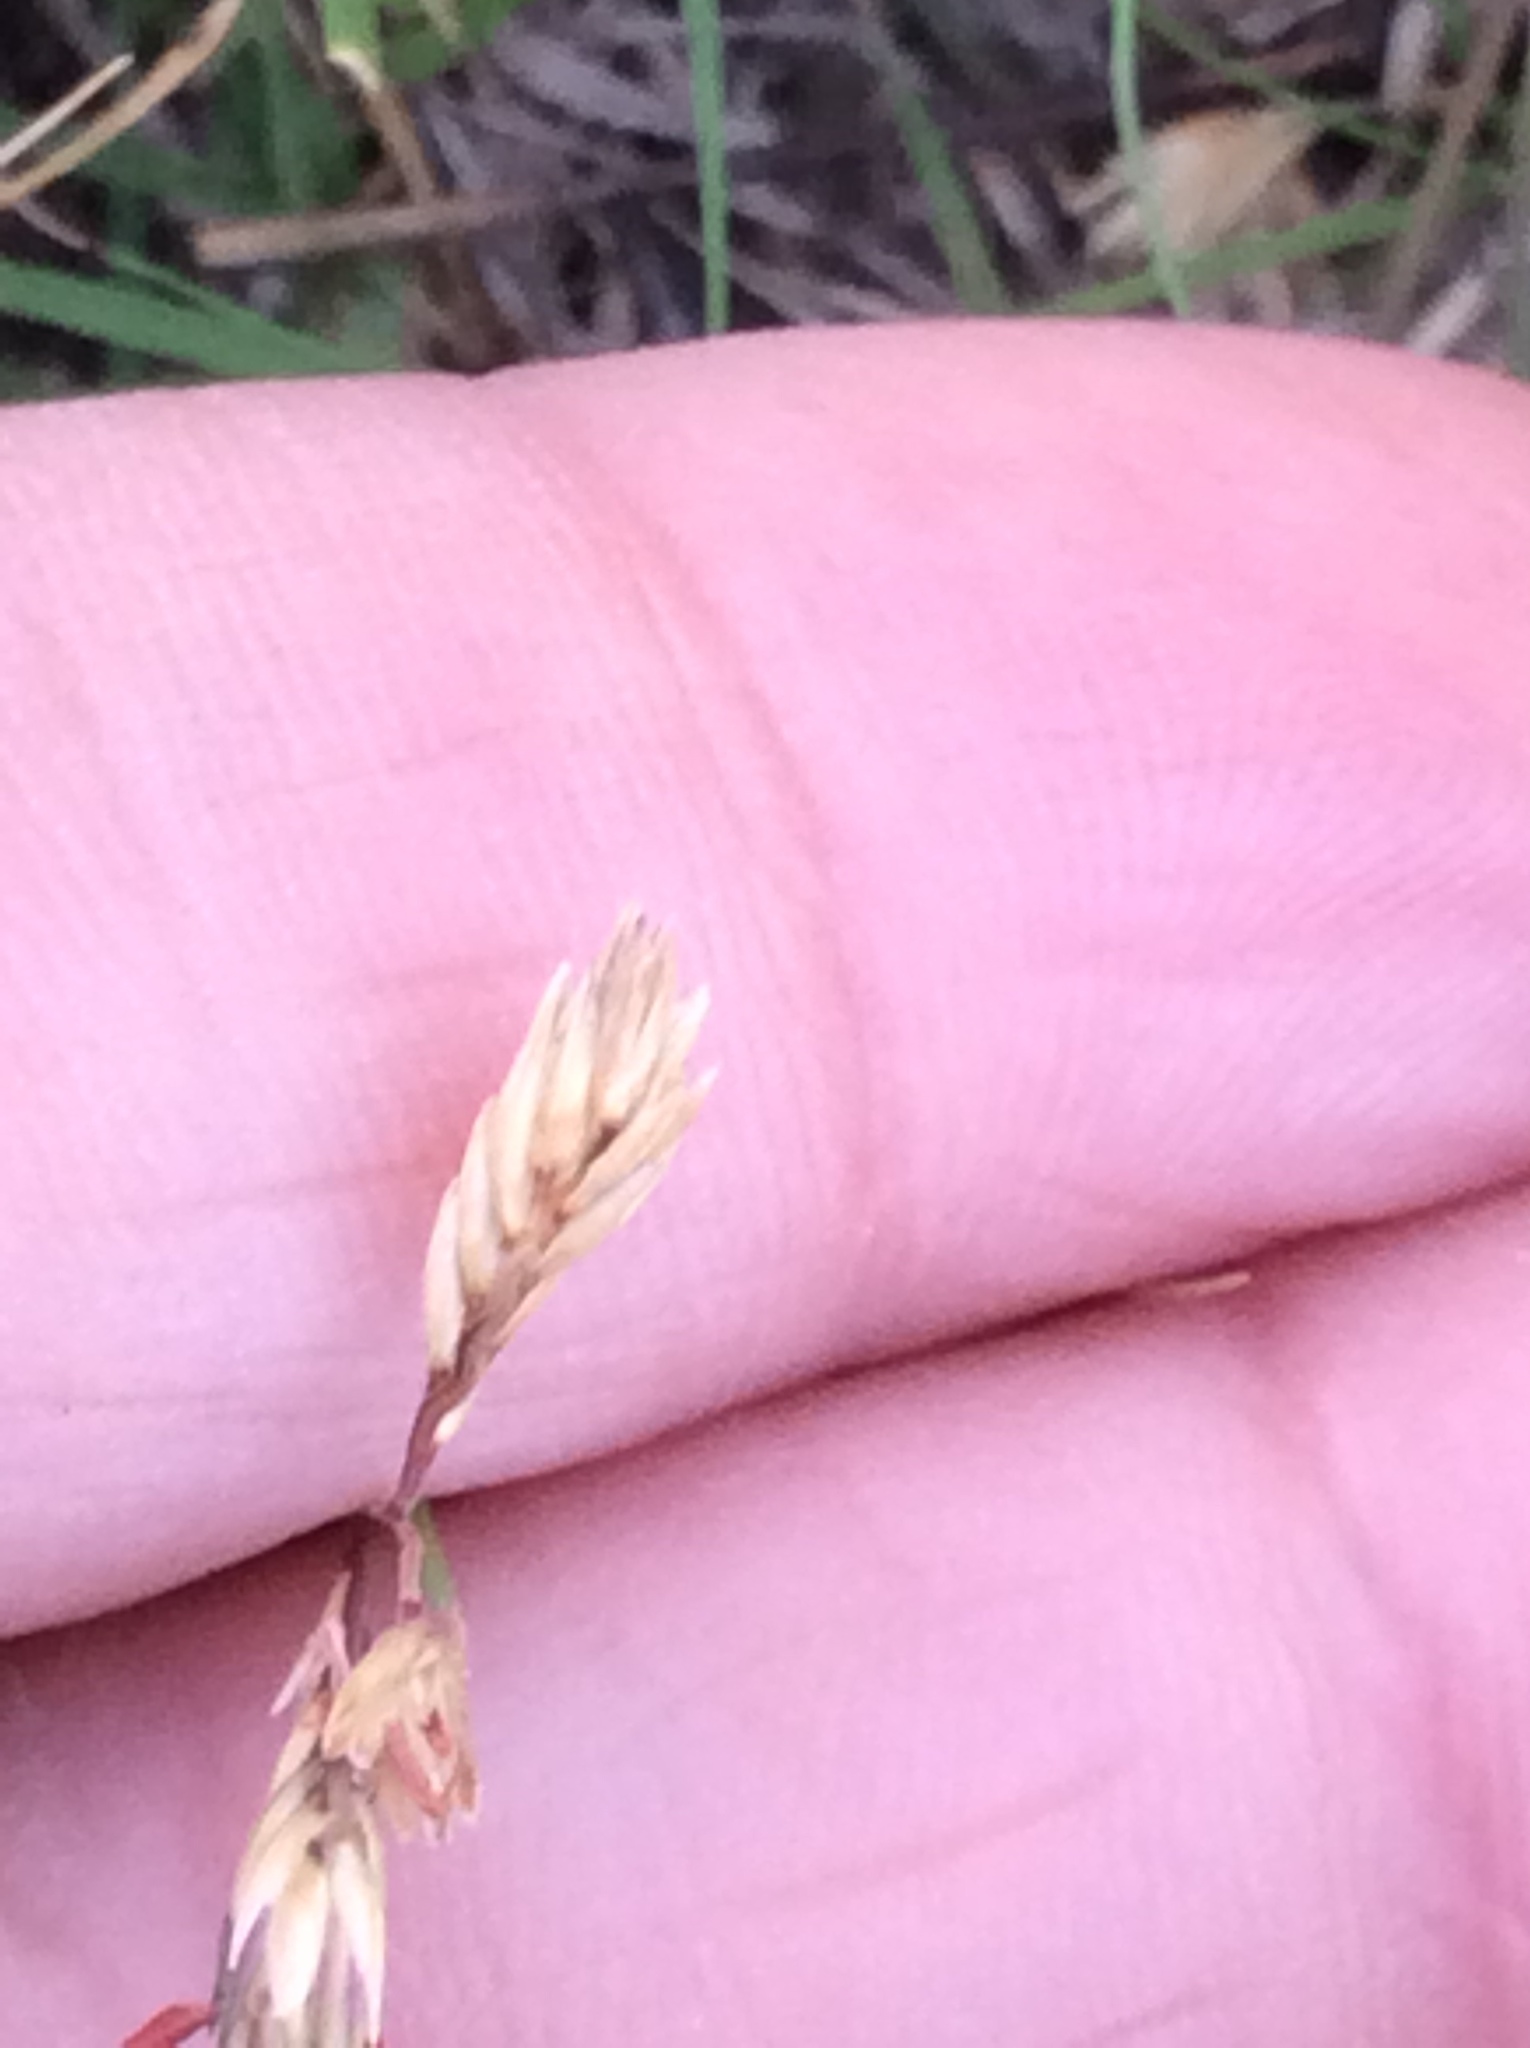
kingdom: Plantae
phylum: Tracheophyta
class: Liliopsida
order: Poales
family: Poaceae
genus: Bouteloua
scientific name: Bouteloua dactyloides
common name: Buffalo grass
